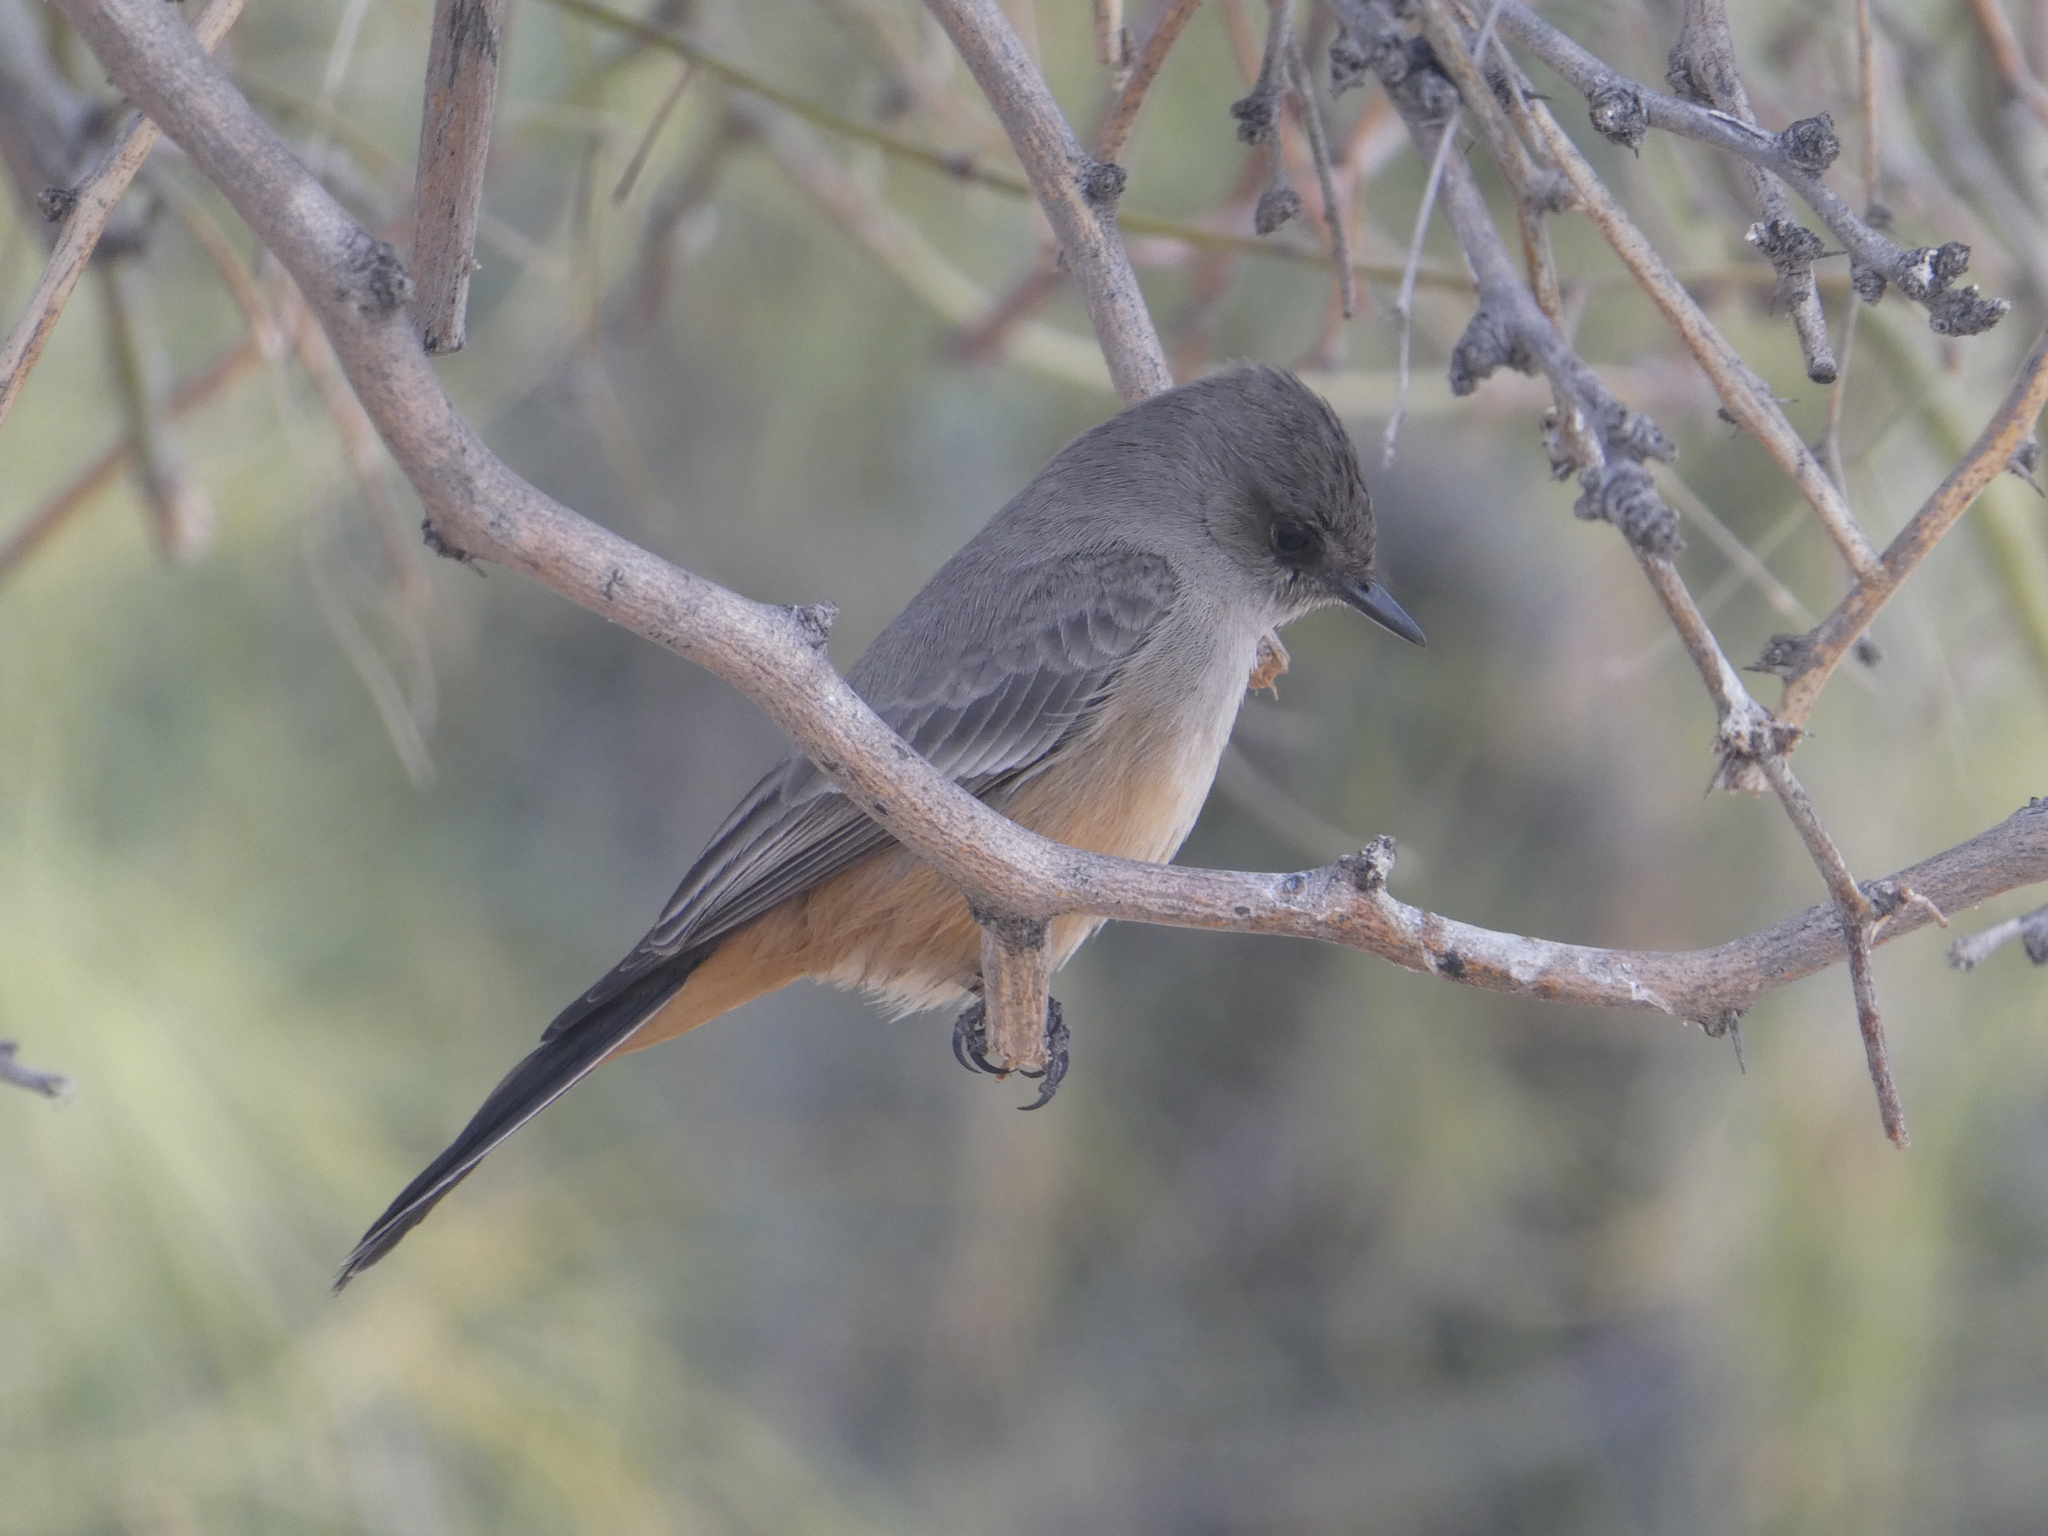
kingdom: Animalia
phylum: Chordata
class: Aves
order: Passeriformes
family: Tyrannidae
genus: Sayornis
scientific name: Sayornis saya
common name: Say's phoebe
